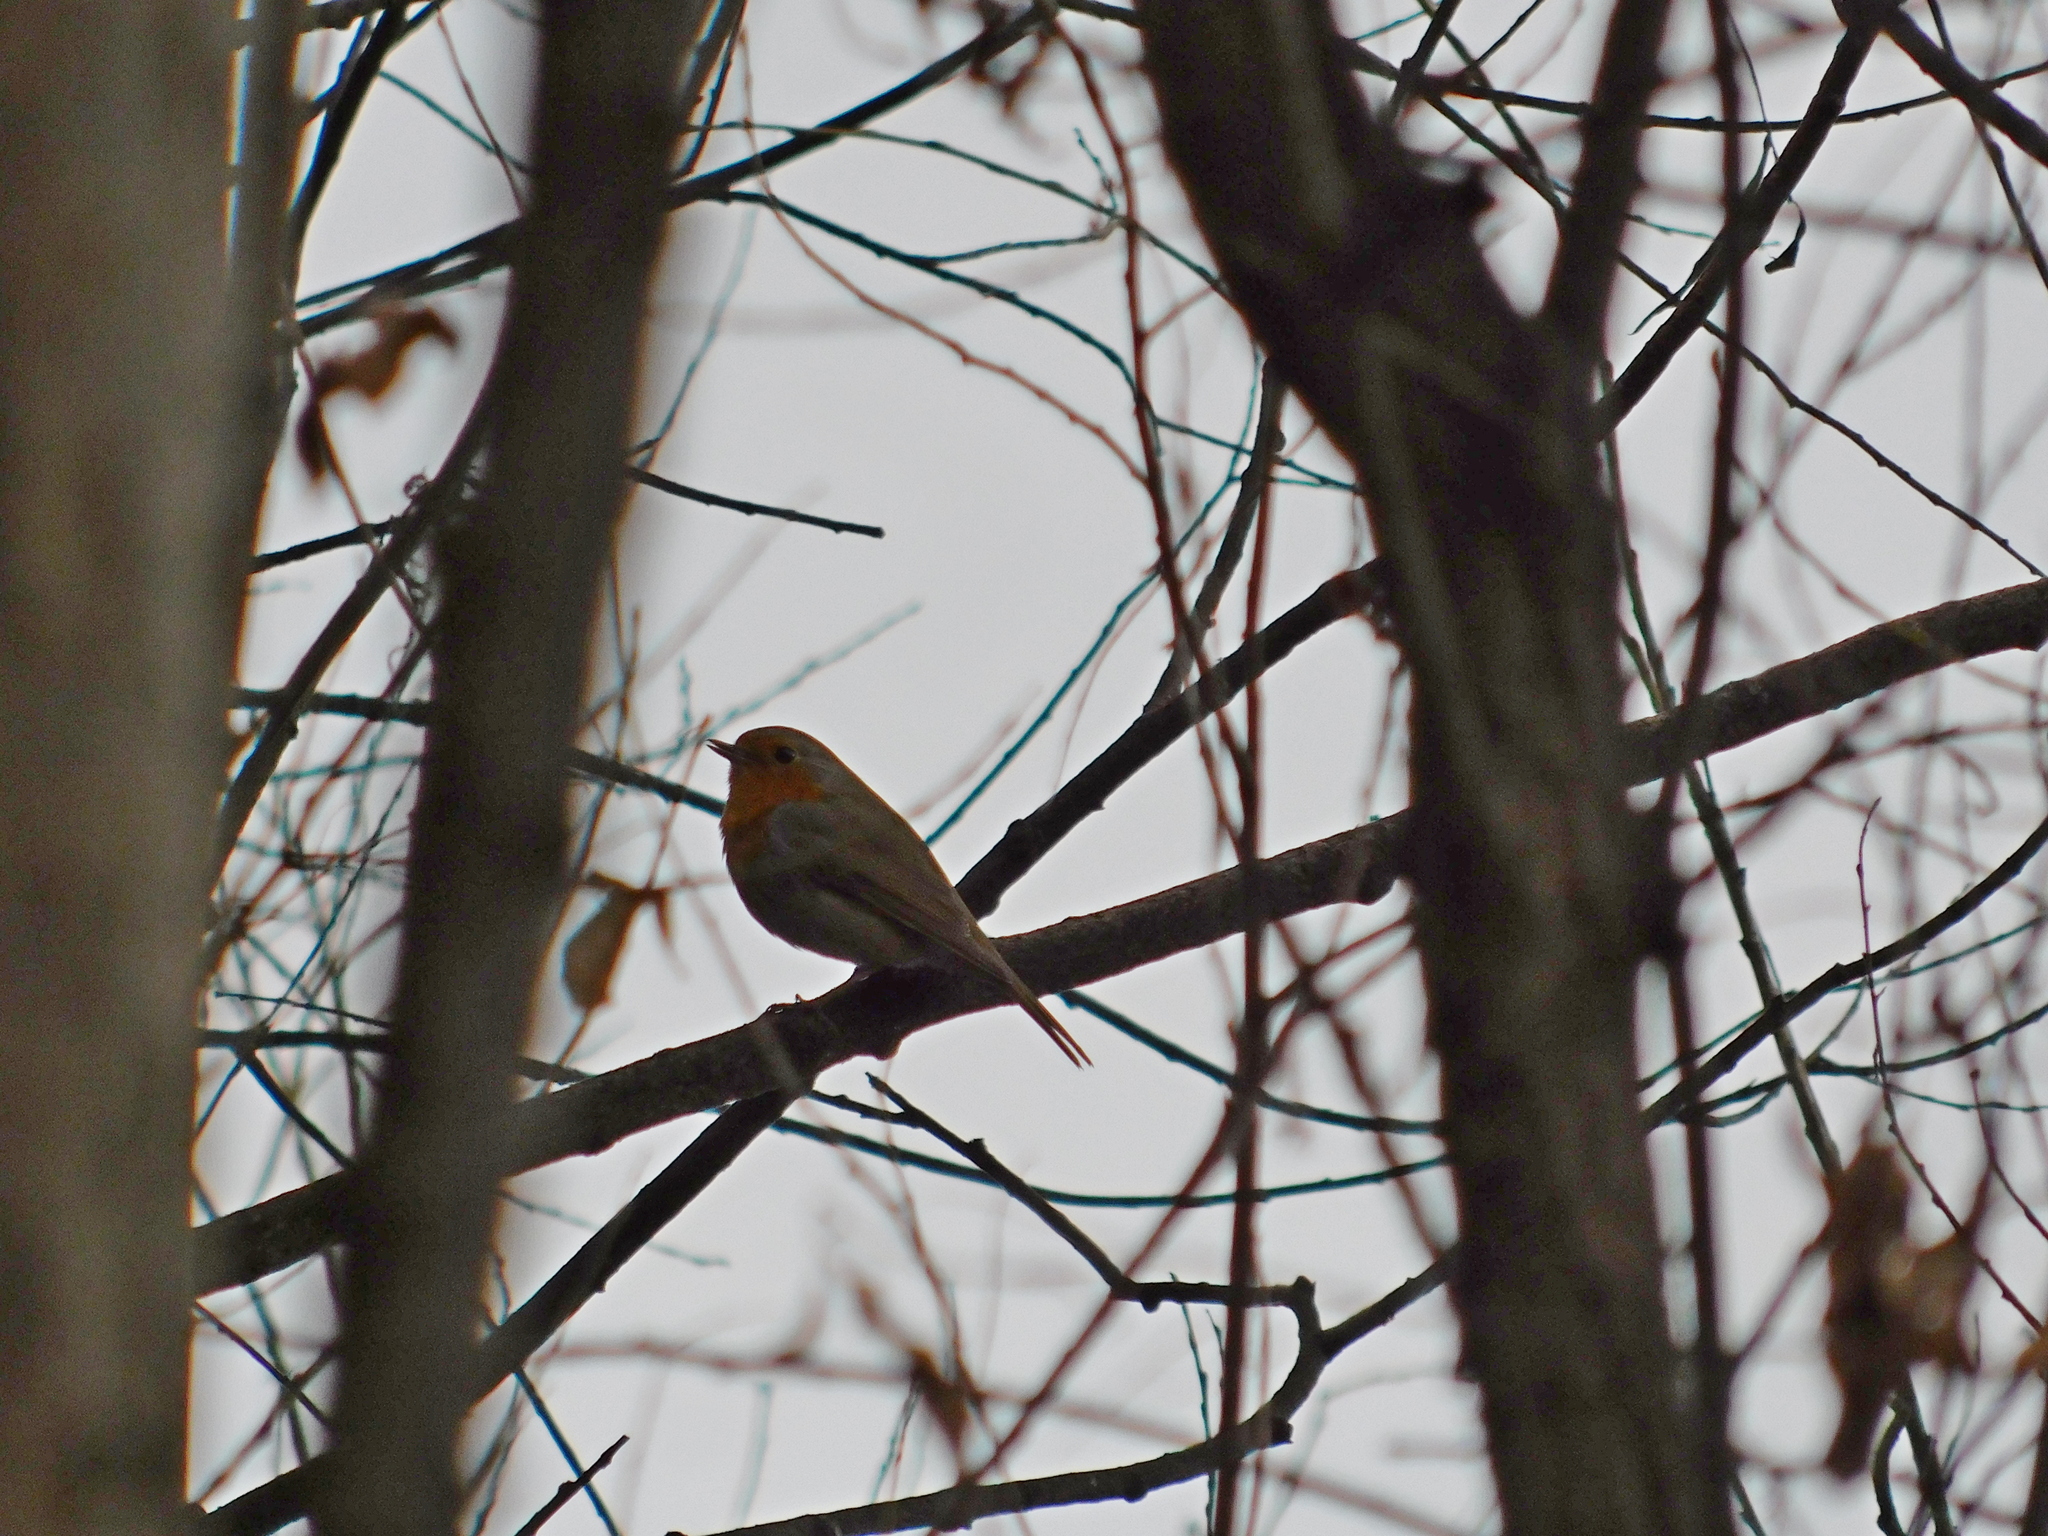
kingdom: Animalia
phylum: Chordata
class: Aves
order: Passeriformes
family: Muscicapidae
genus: Erithacus
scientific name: Erithacus rubecula
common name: European robin
